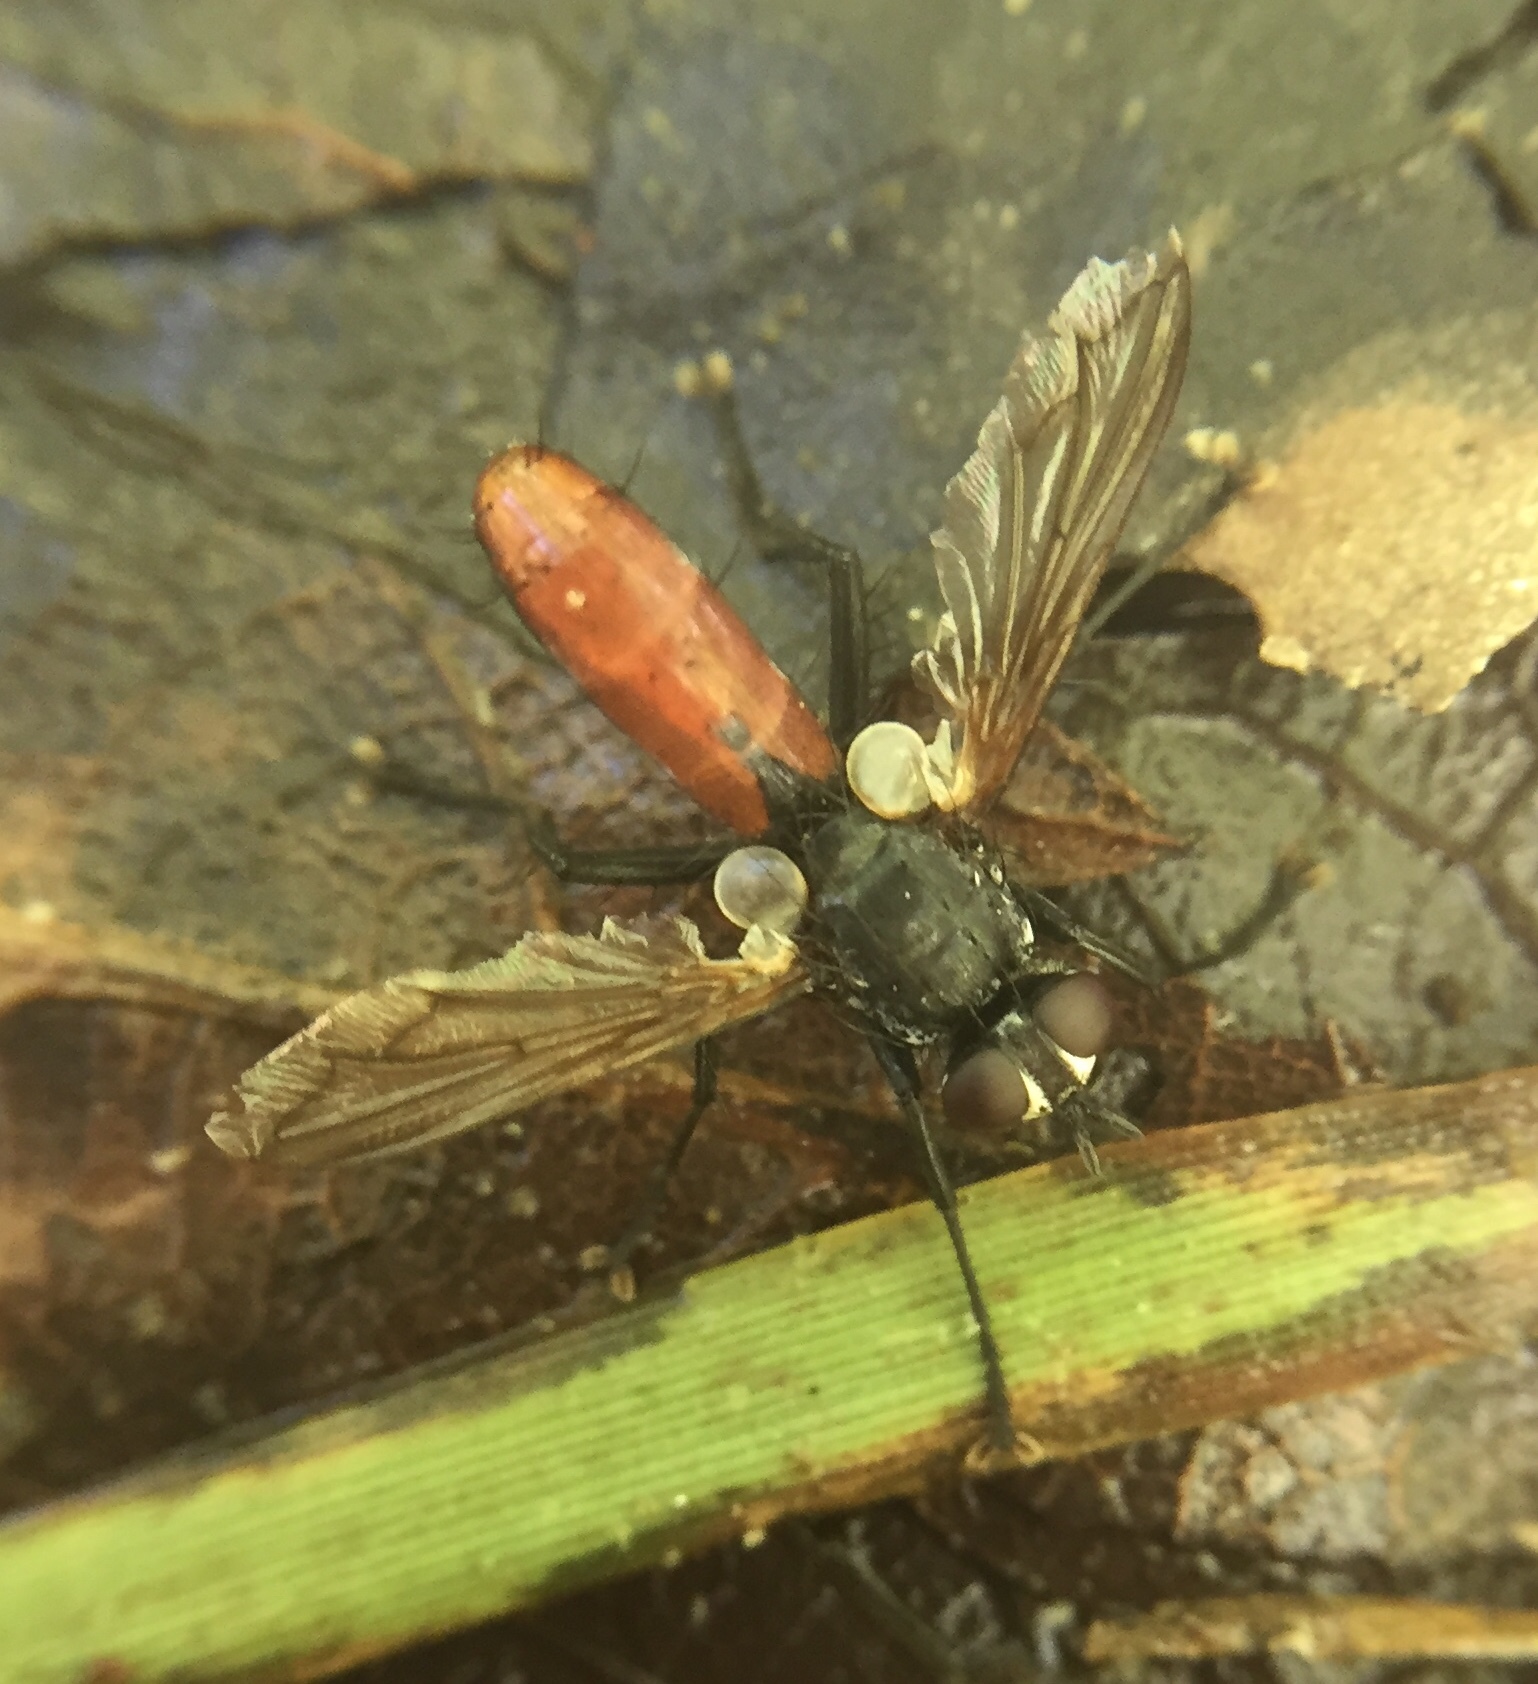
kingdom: Animalia
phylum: Arthropoda
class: Insecta
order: Diptera
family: Tachinidae
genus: Cylindromyia
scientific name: Cylindromyia bicolor
